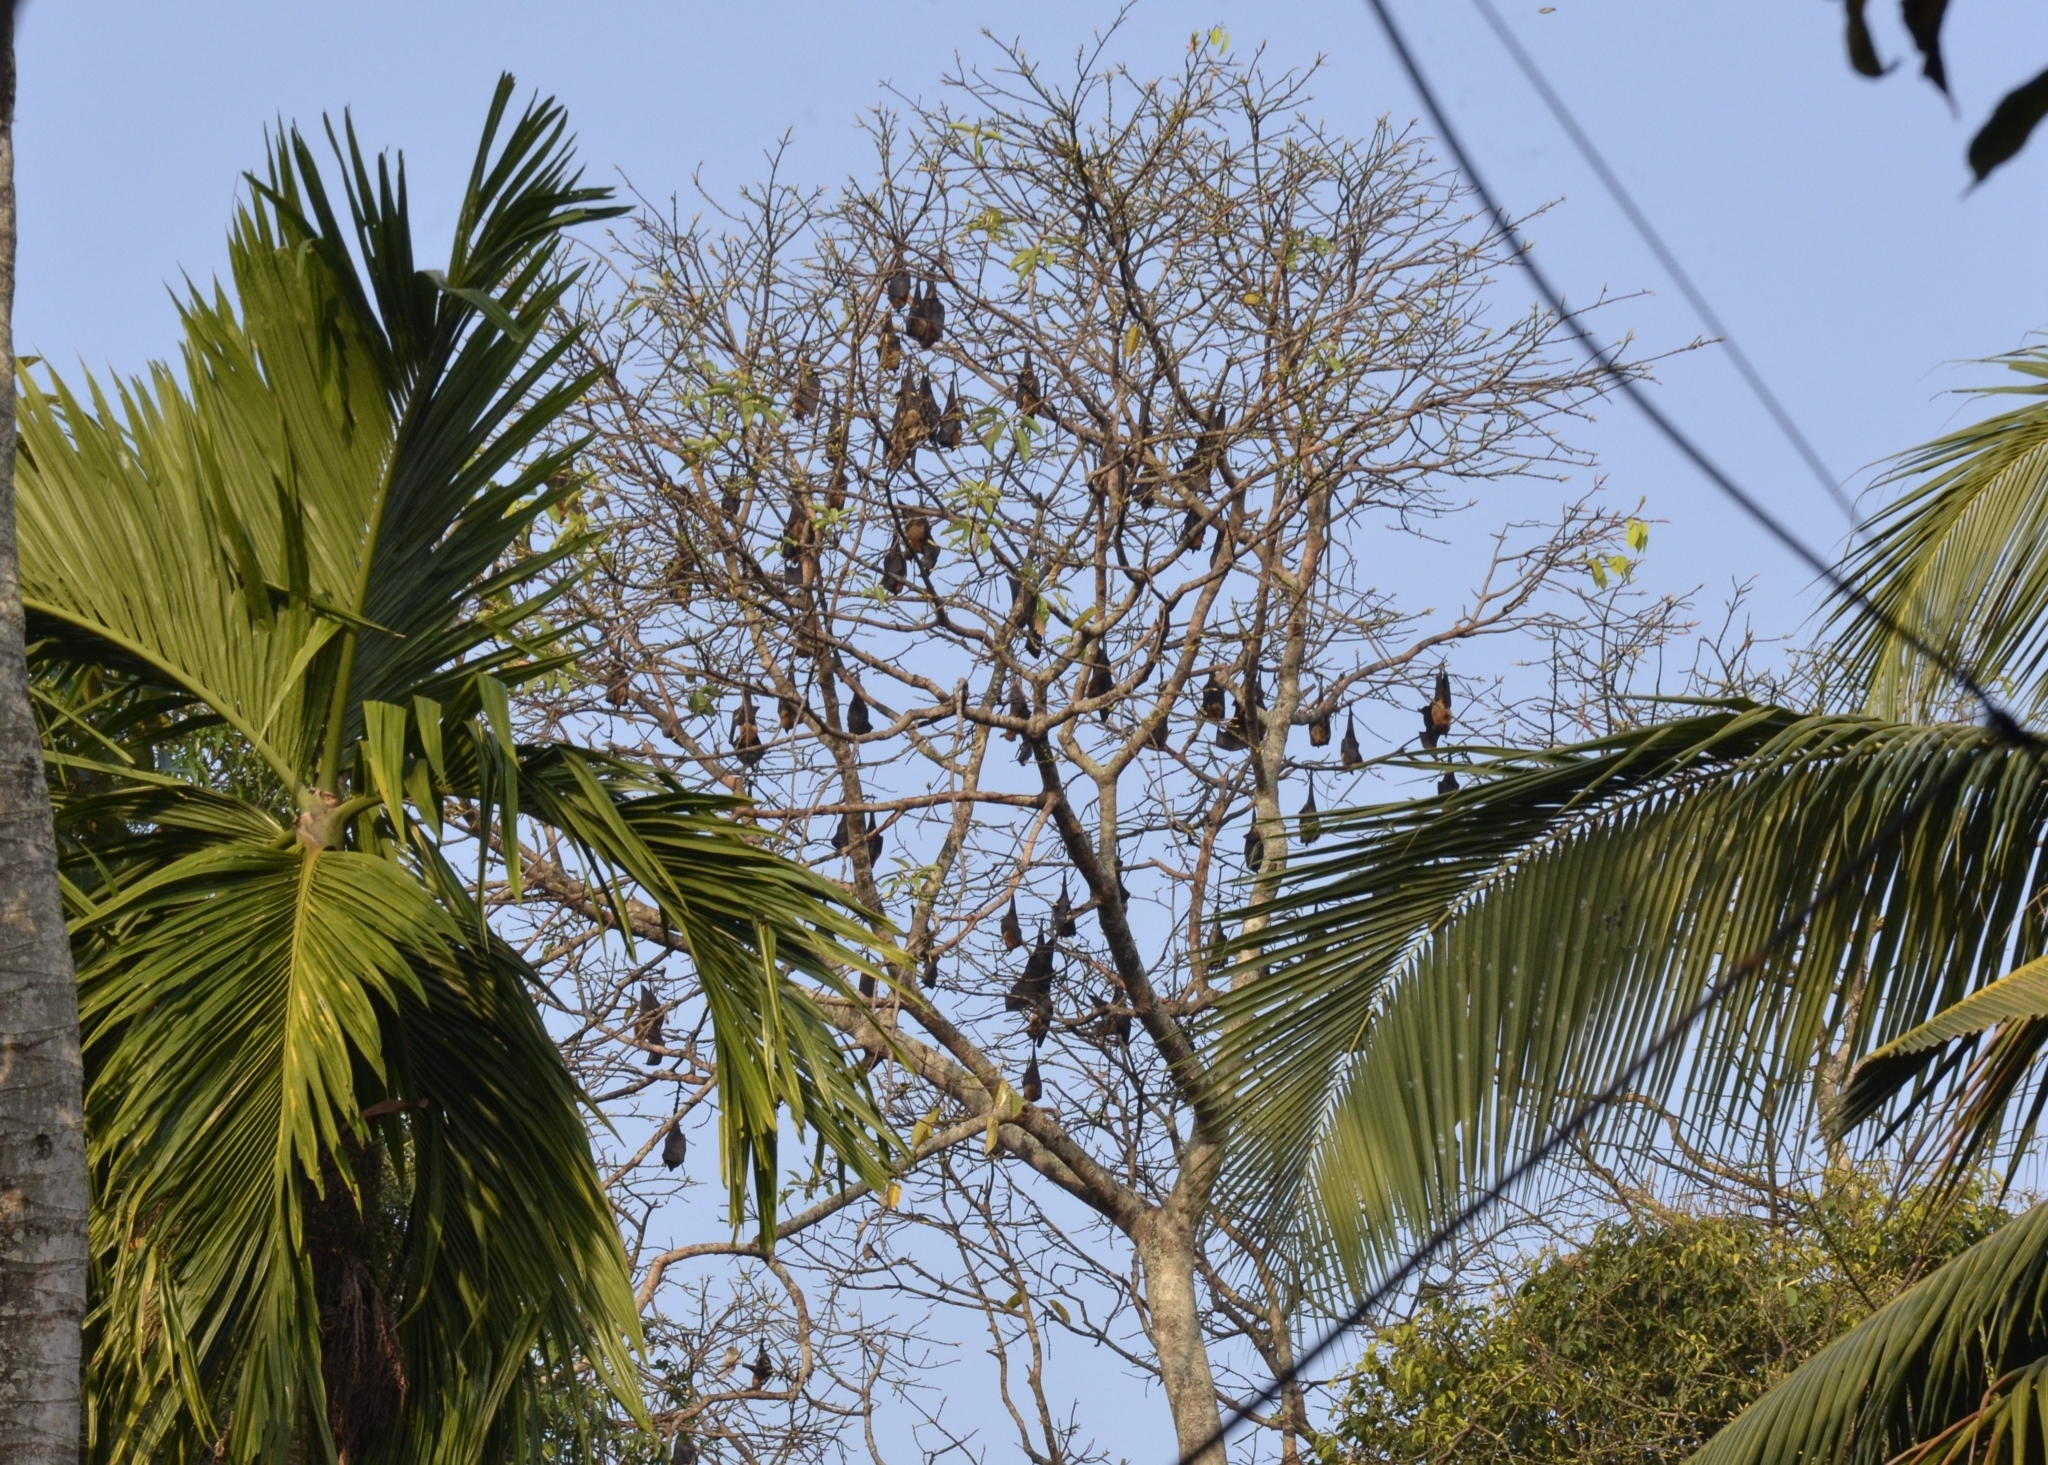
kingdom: Animalia
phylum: Chordata
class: Mammalia
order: Chiroptera
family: Pteropodidae
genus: Pteropus
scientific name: Pteropus vampyrus
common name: Large flying fox
